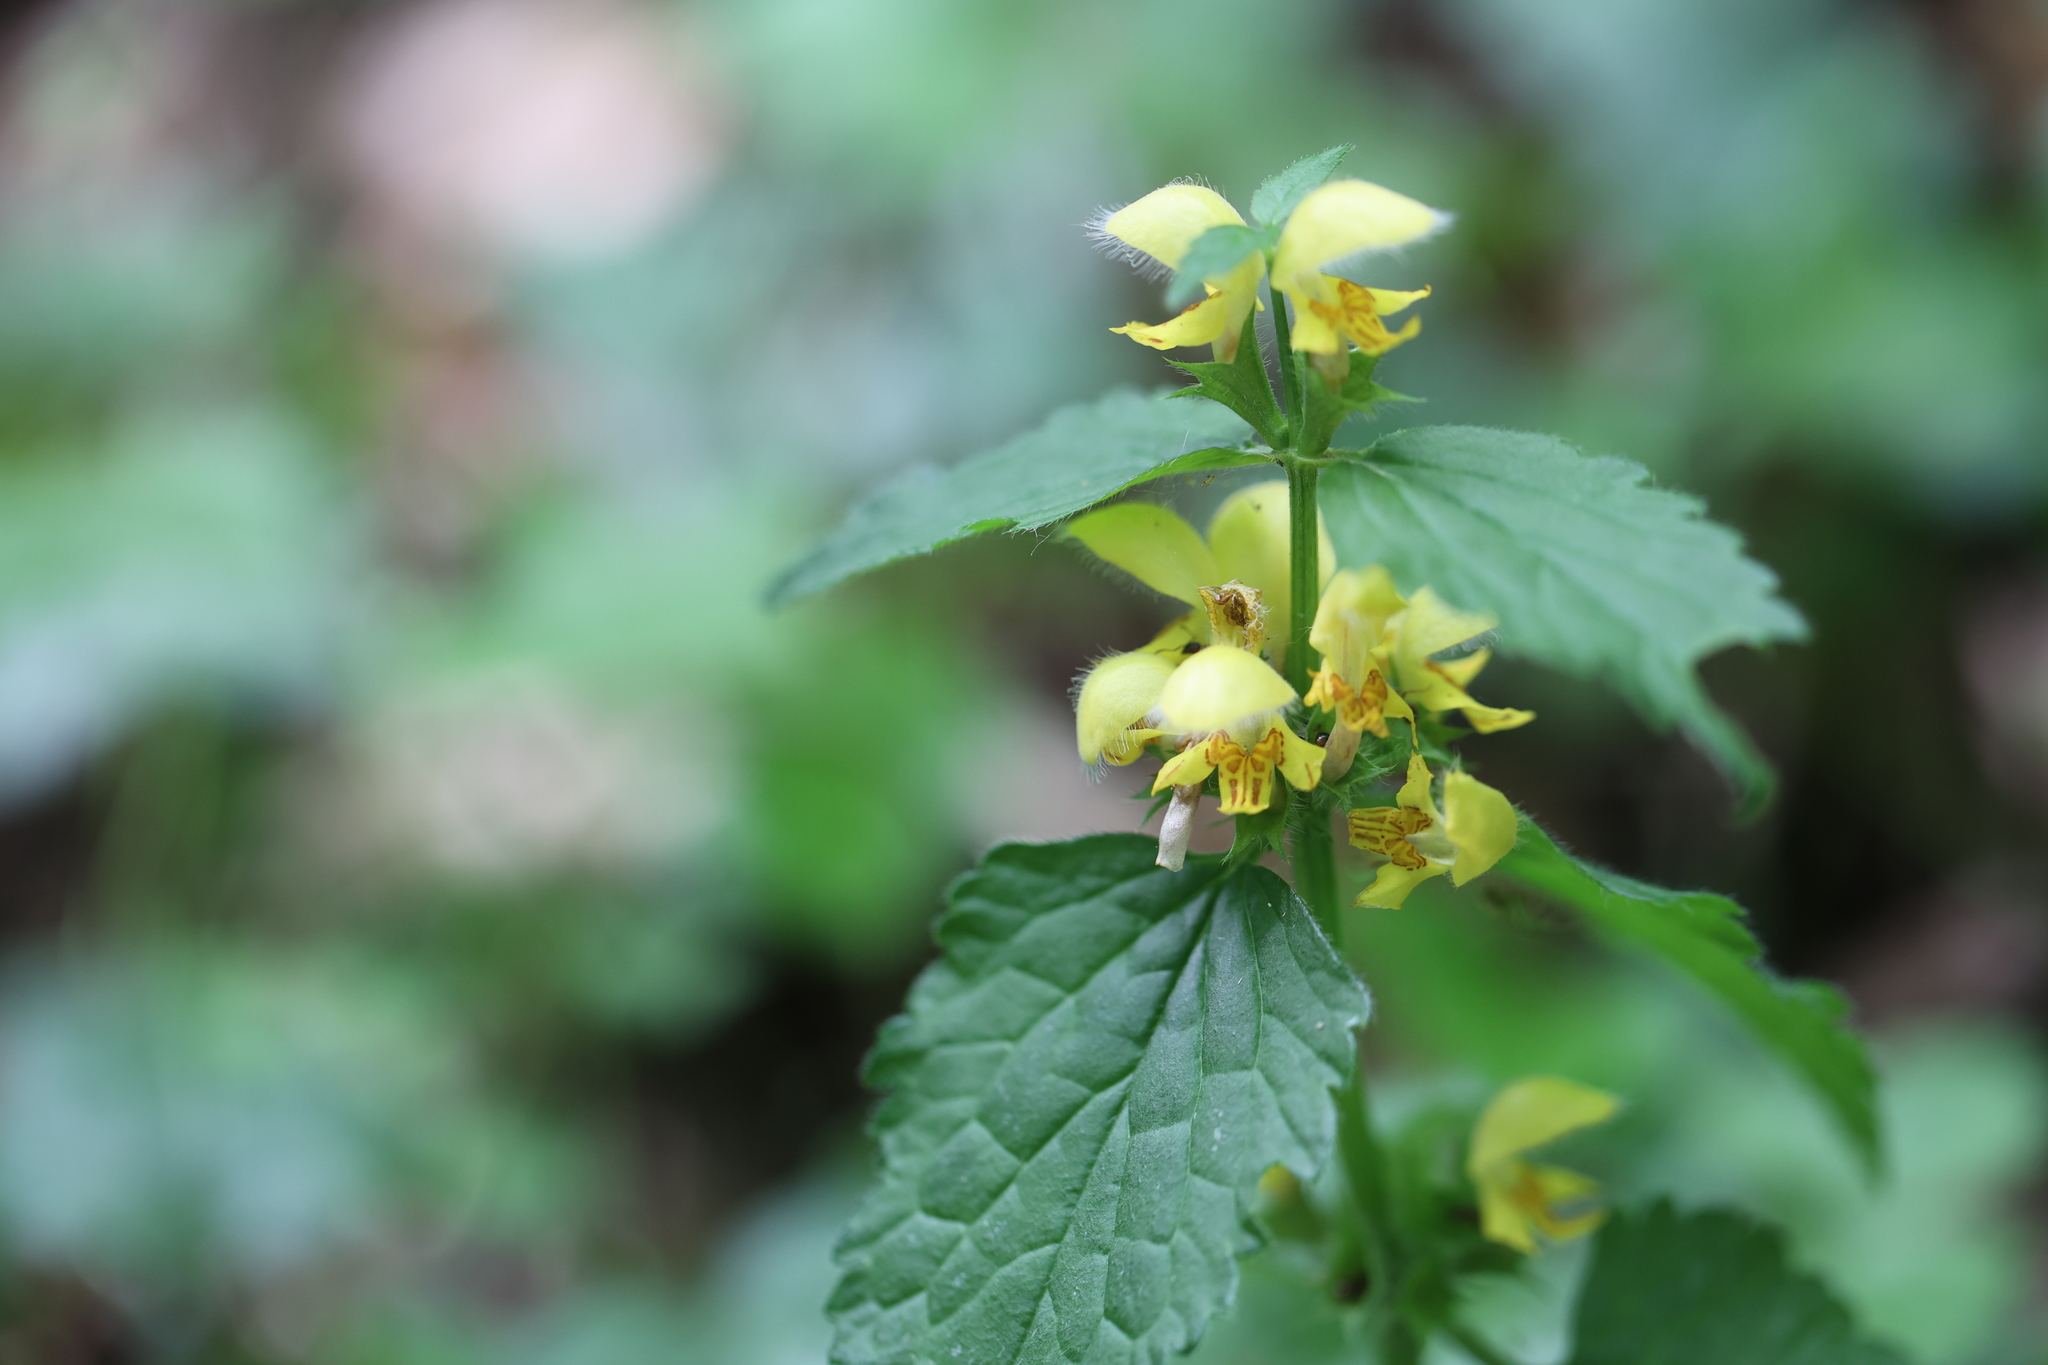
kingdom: Plantae
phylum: Tracheophyta
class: Magnoliopsida
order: Lamiales
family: Lamiaceae
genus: Lamium
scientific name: Lamium galeobdolon
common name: Yellow archangel
